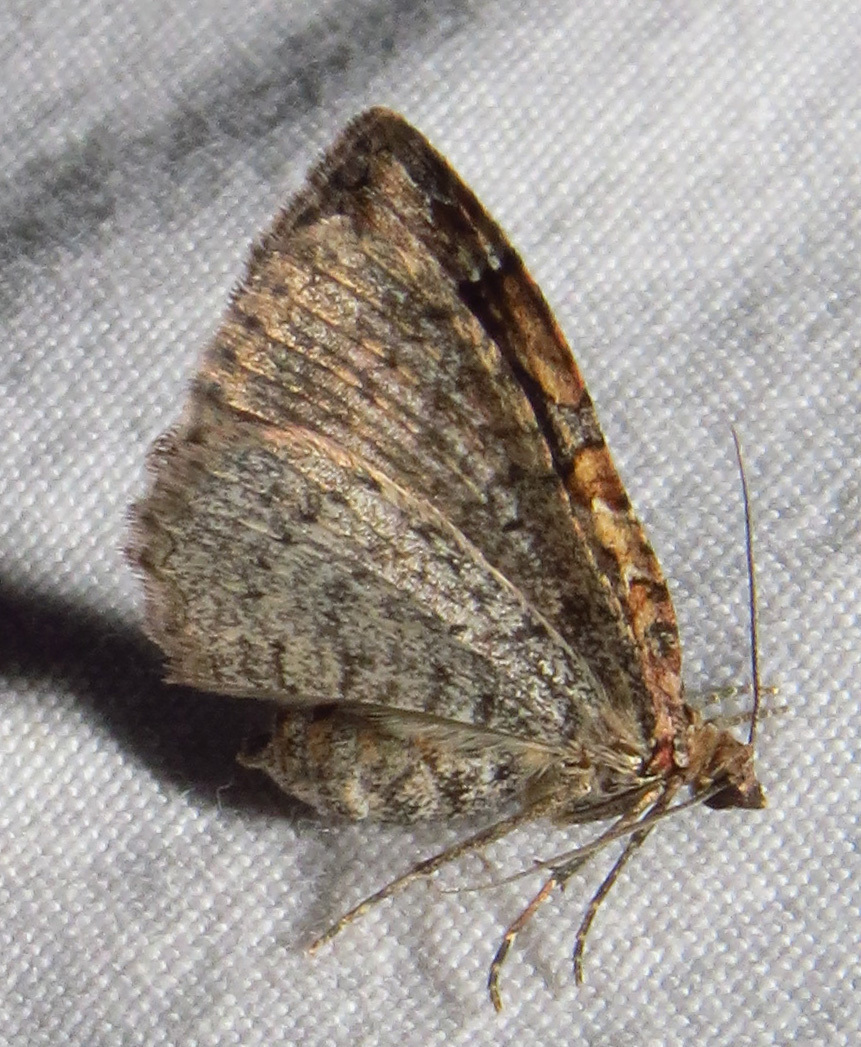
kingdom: Animalia
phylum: Arthropoda
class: Insecta
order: Lepidoptera
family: Geometridae
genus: Costaconvexa
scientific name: Costaconvexa centrostrigaria
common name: Bent-line carpet
